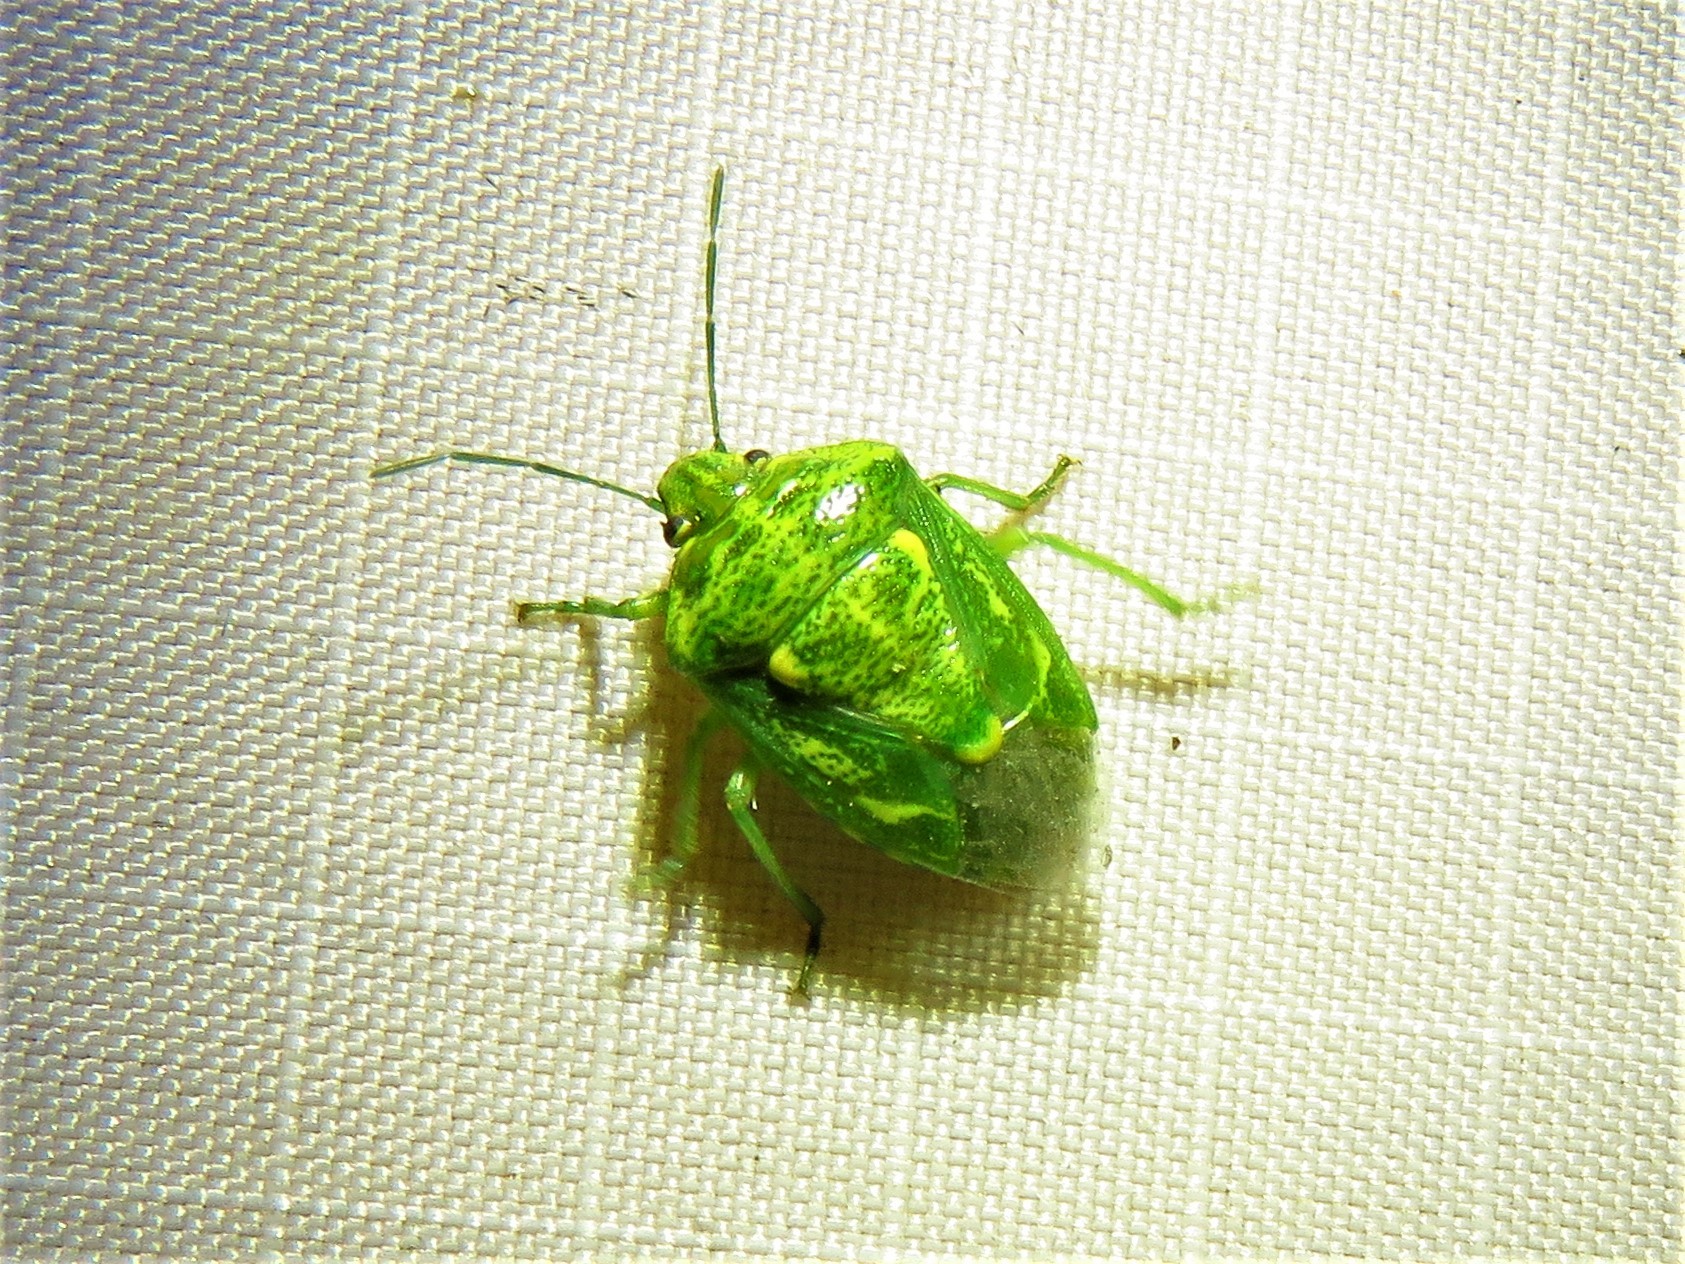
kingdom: Animalia
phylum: Arthropoda
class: Insecta
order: Hemiptera
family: Pentatomidae
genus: Banasa
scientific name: Banasa euchlora
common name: Cedar berry bug
